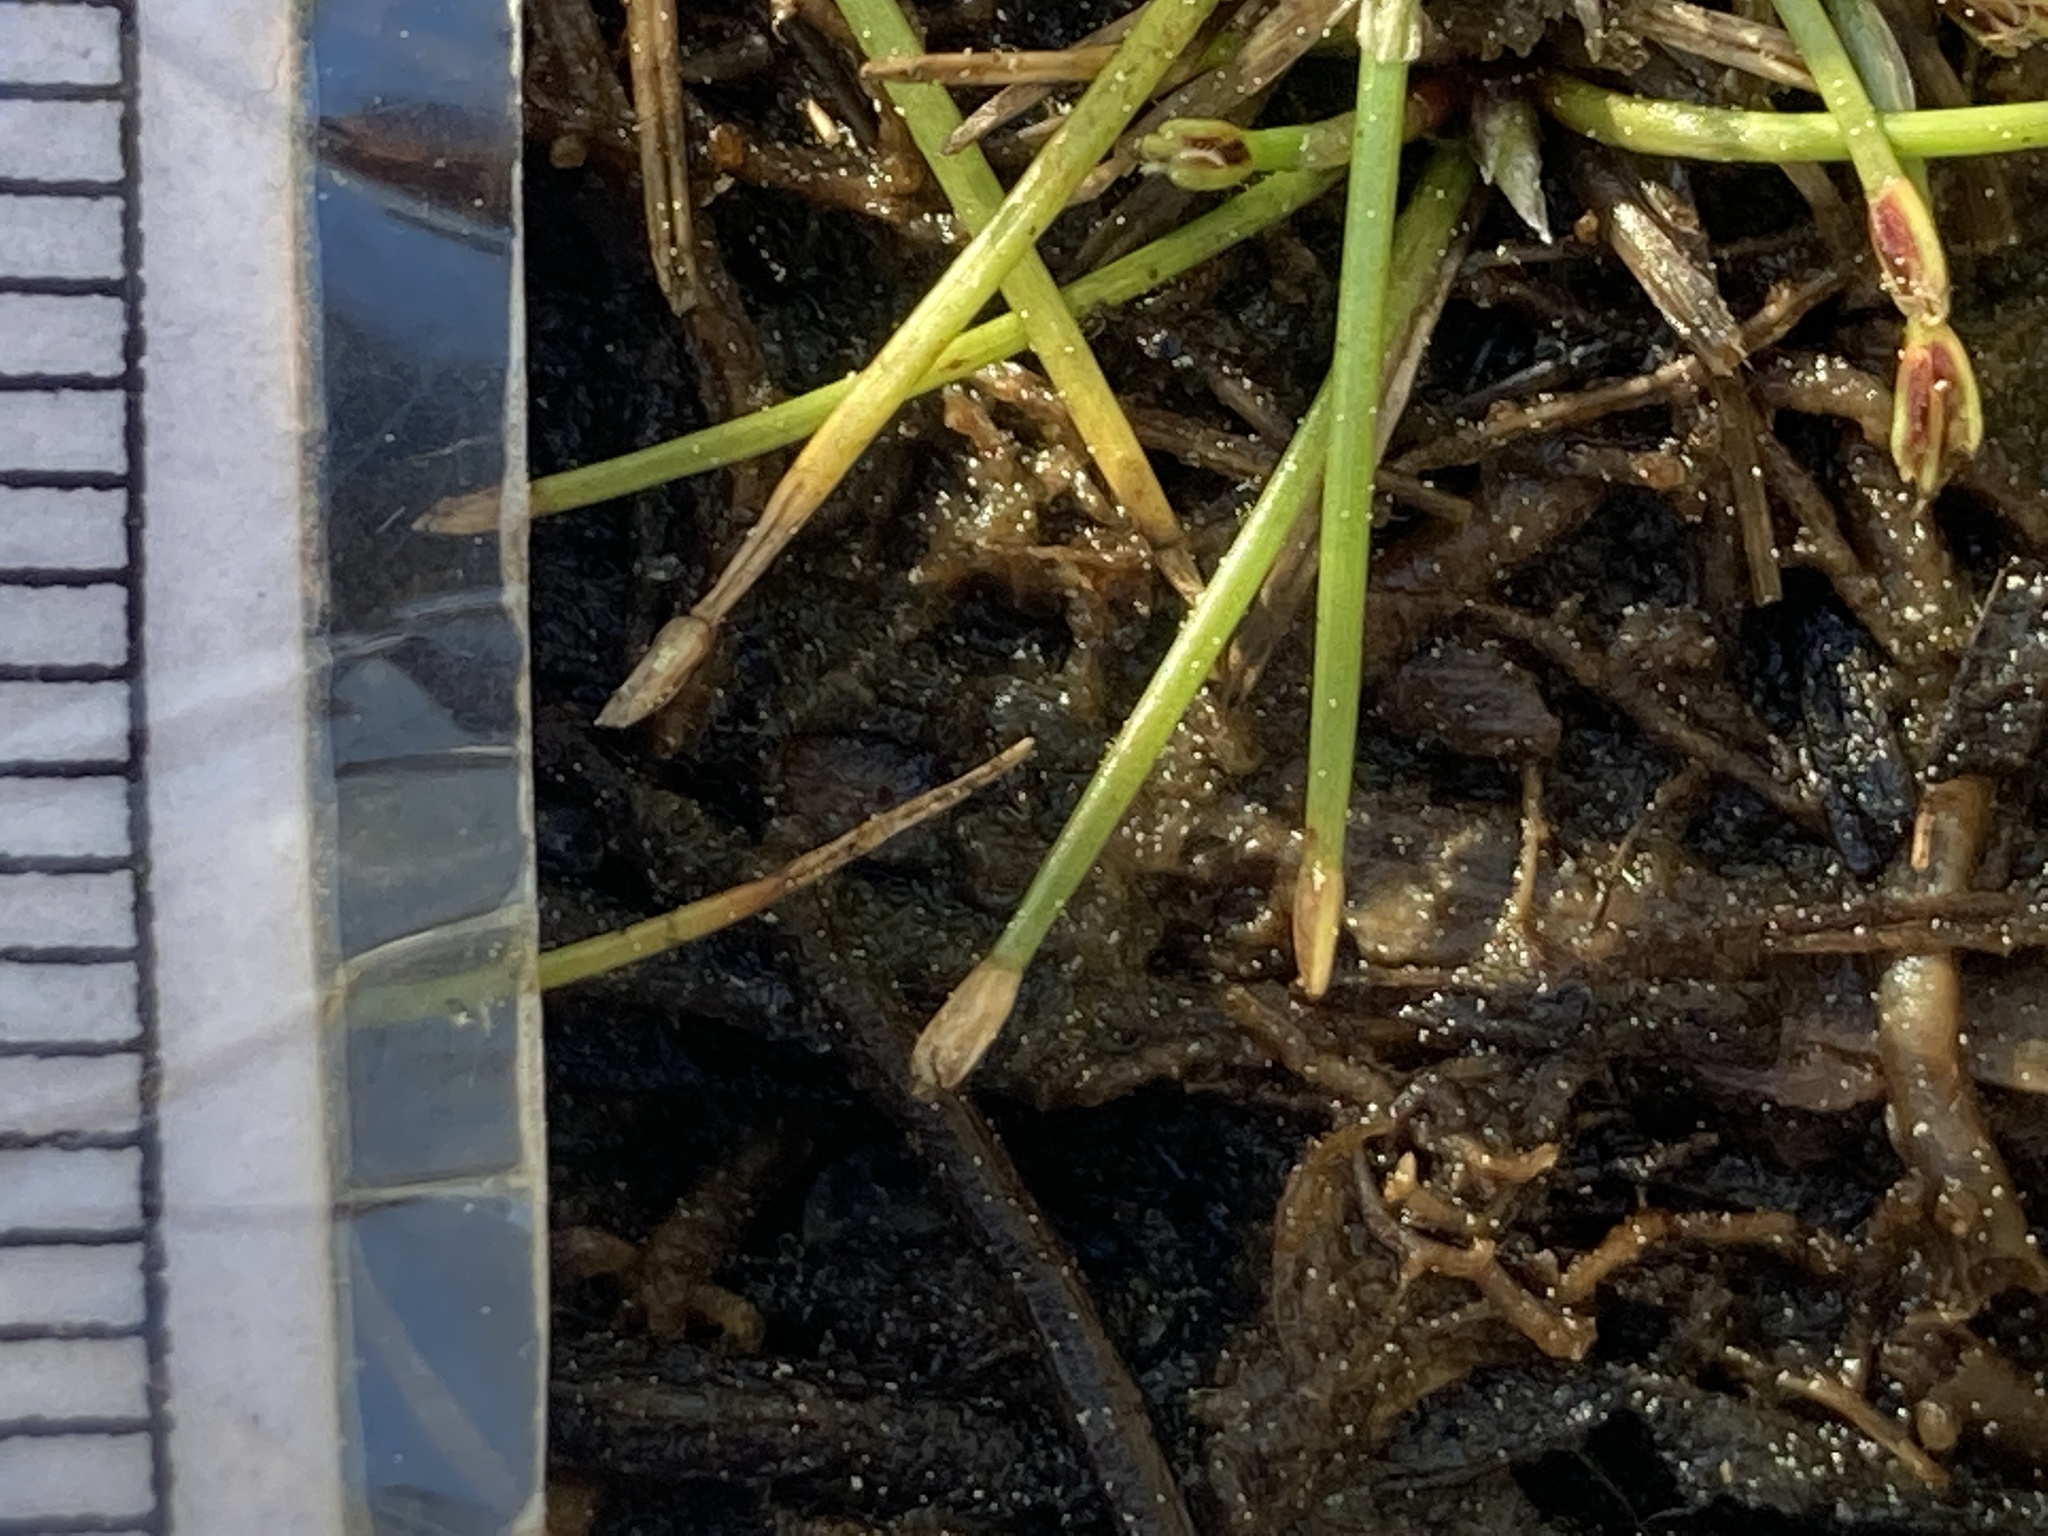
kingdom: Plantae
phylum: Tracheophyta
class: Liliopsida
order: Poales
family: Cyperaceae
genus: Eleocharis
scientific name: Eleocharis flavescens
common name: Yellow spikerush
